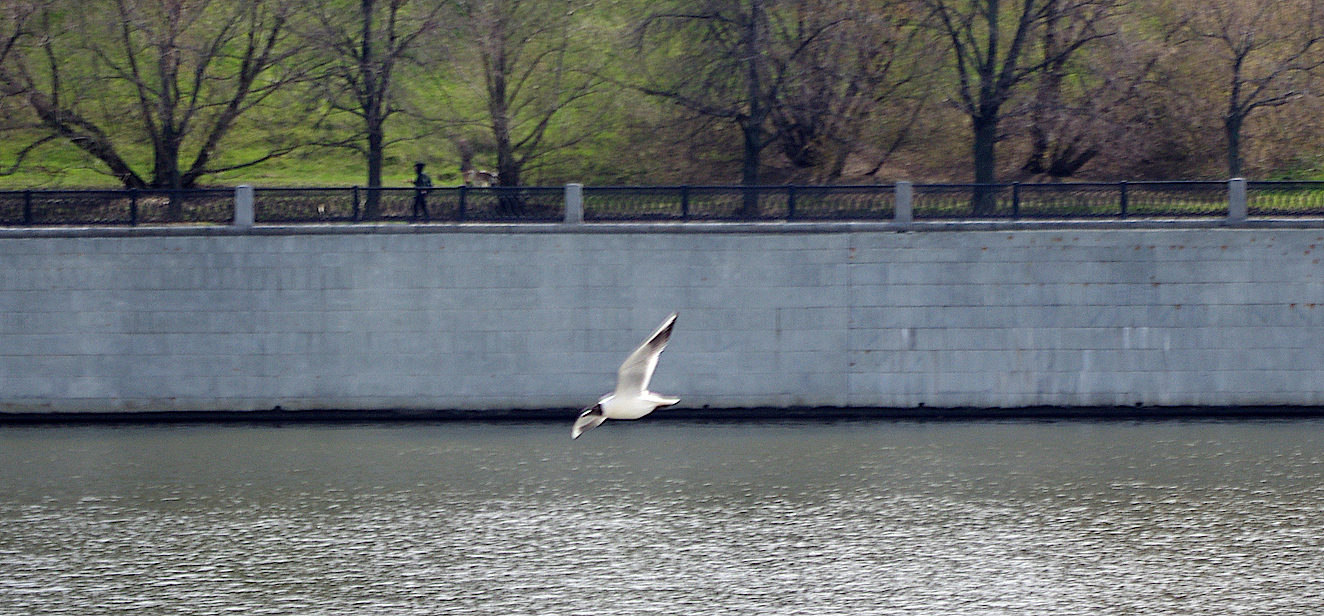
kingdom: Animalia
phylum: Chordata
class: Aves
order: Charadriiformes
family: Laridae
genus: Chroicocephalus
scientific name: Chroicocephalus ridibundus
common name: Black-headed gull
